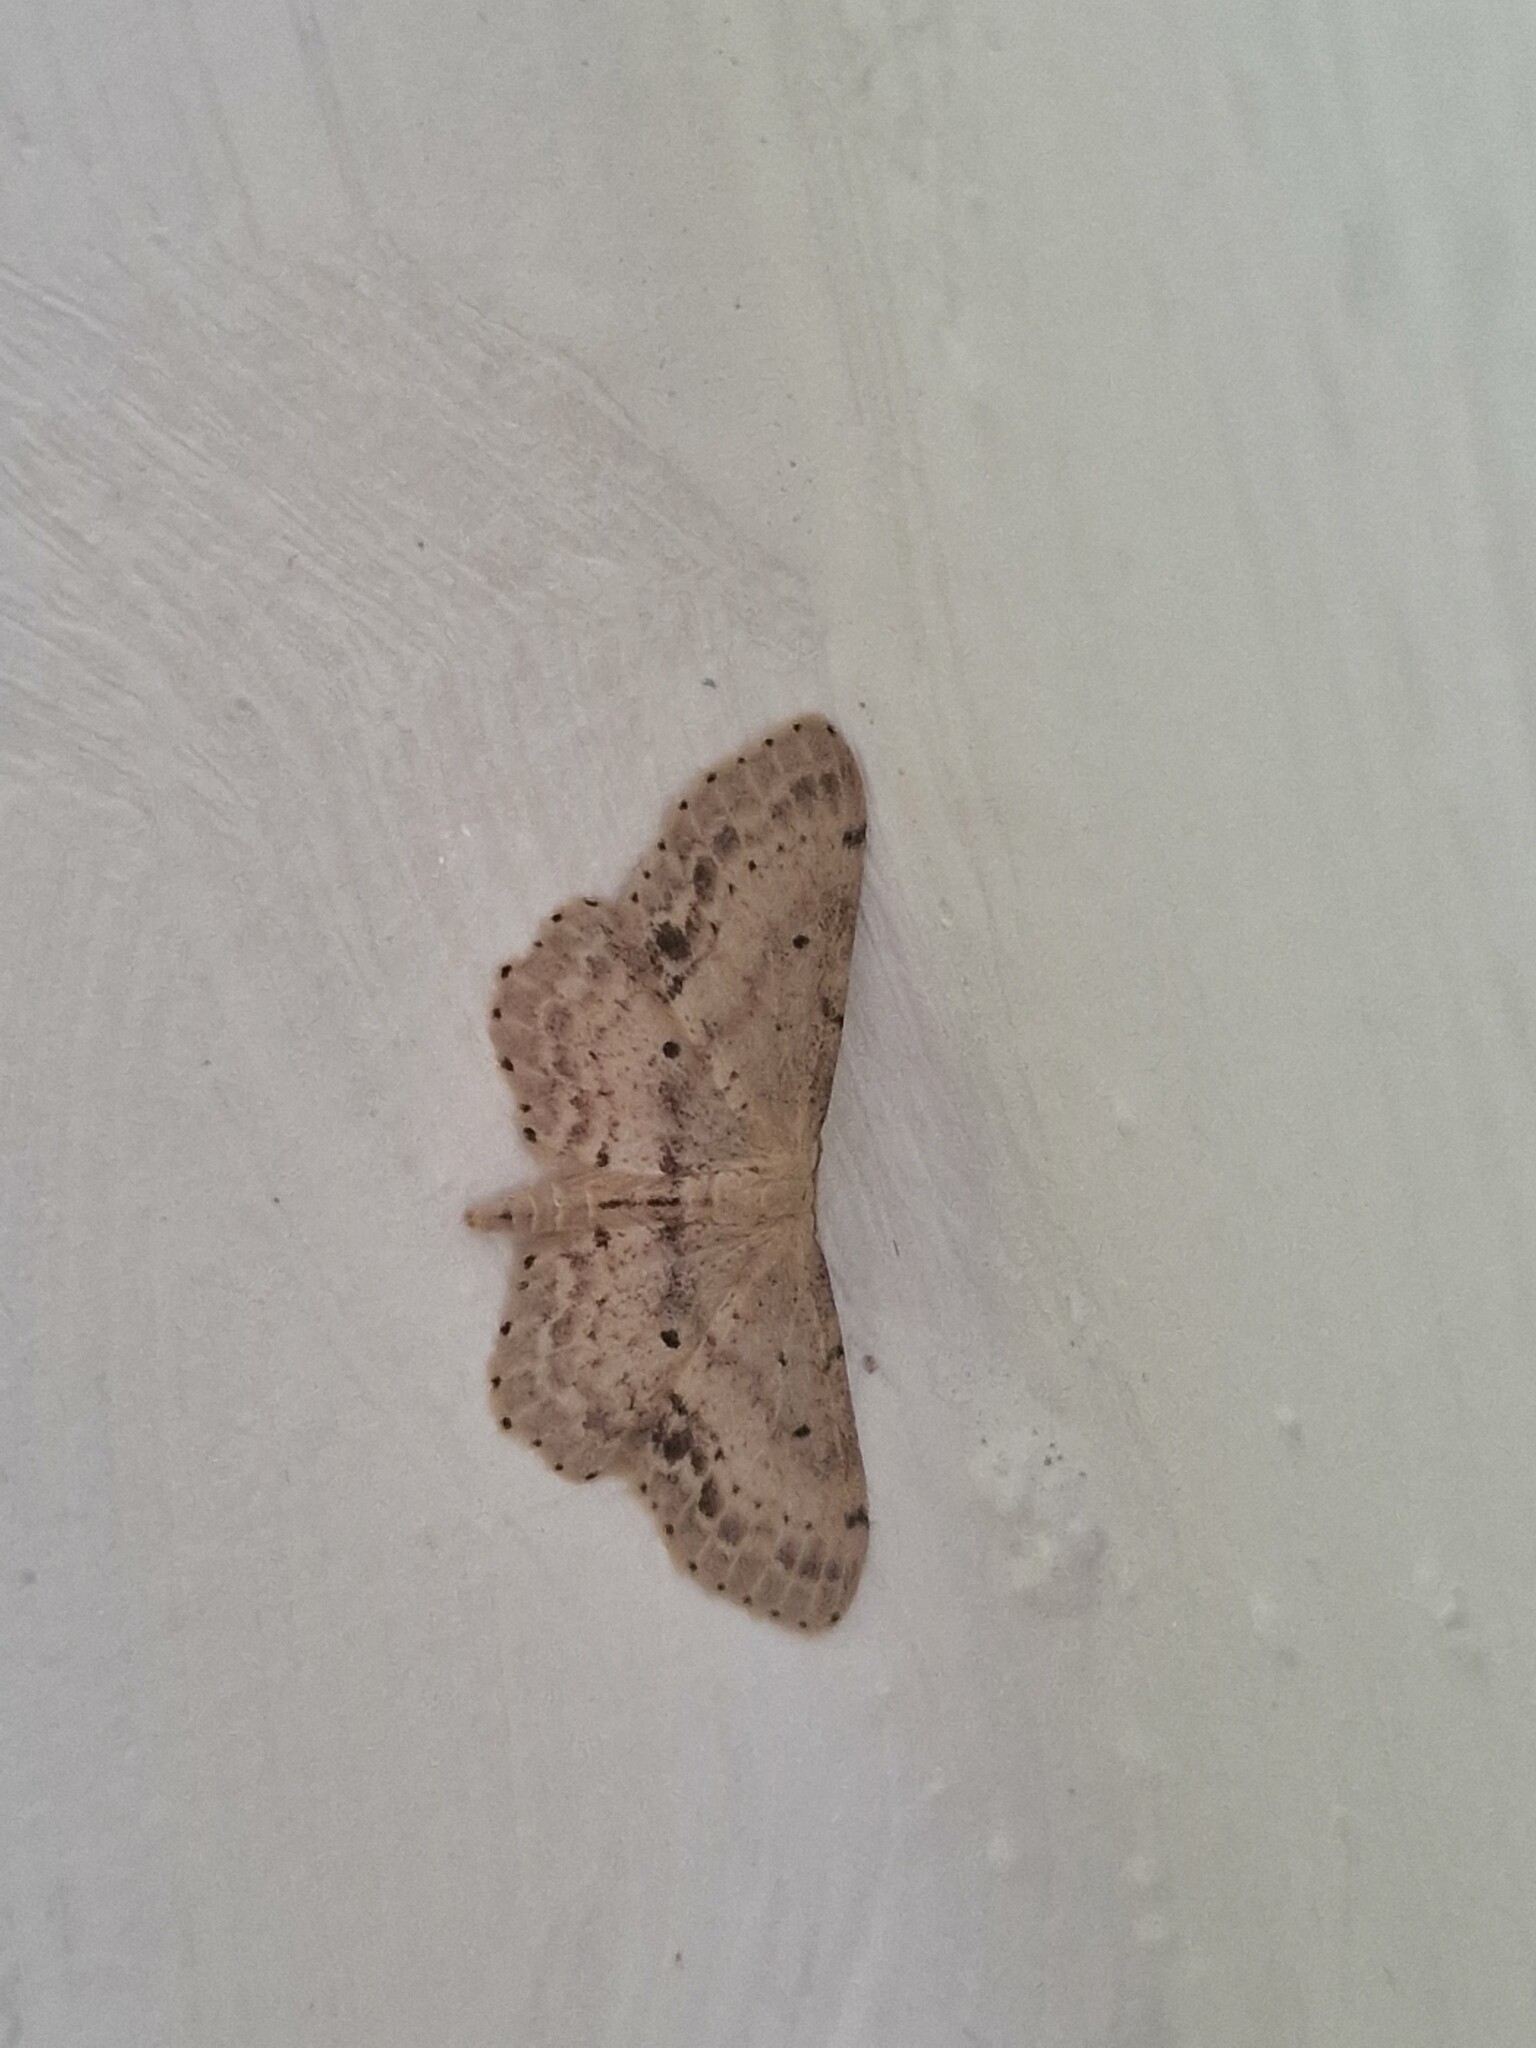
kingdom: Animalia
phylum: Arthropoda
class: Insecta
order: Lepidoptera
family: Geometridae
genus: Idaea
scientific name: Idaea dimidiata
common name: Single-dotted wave
